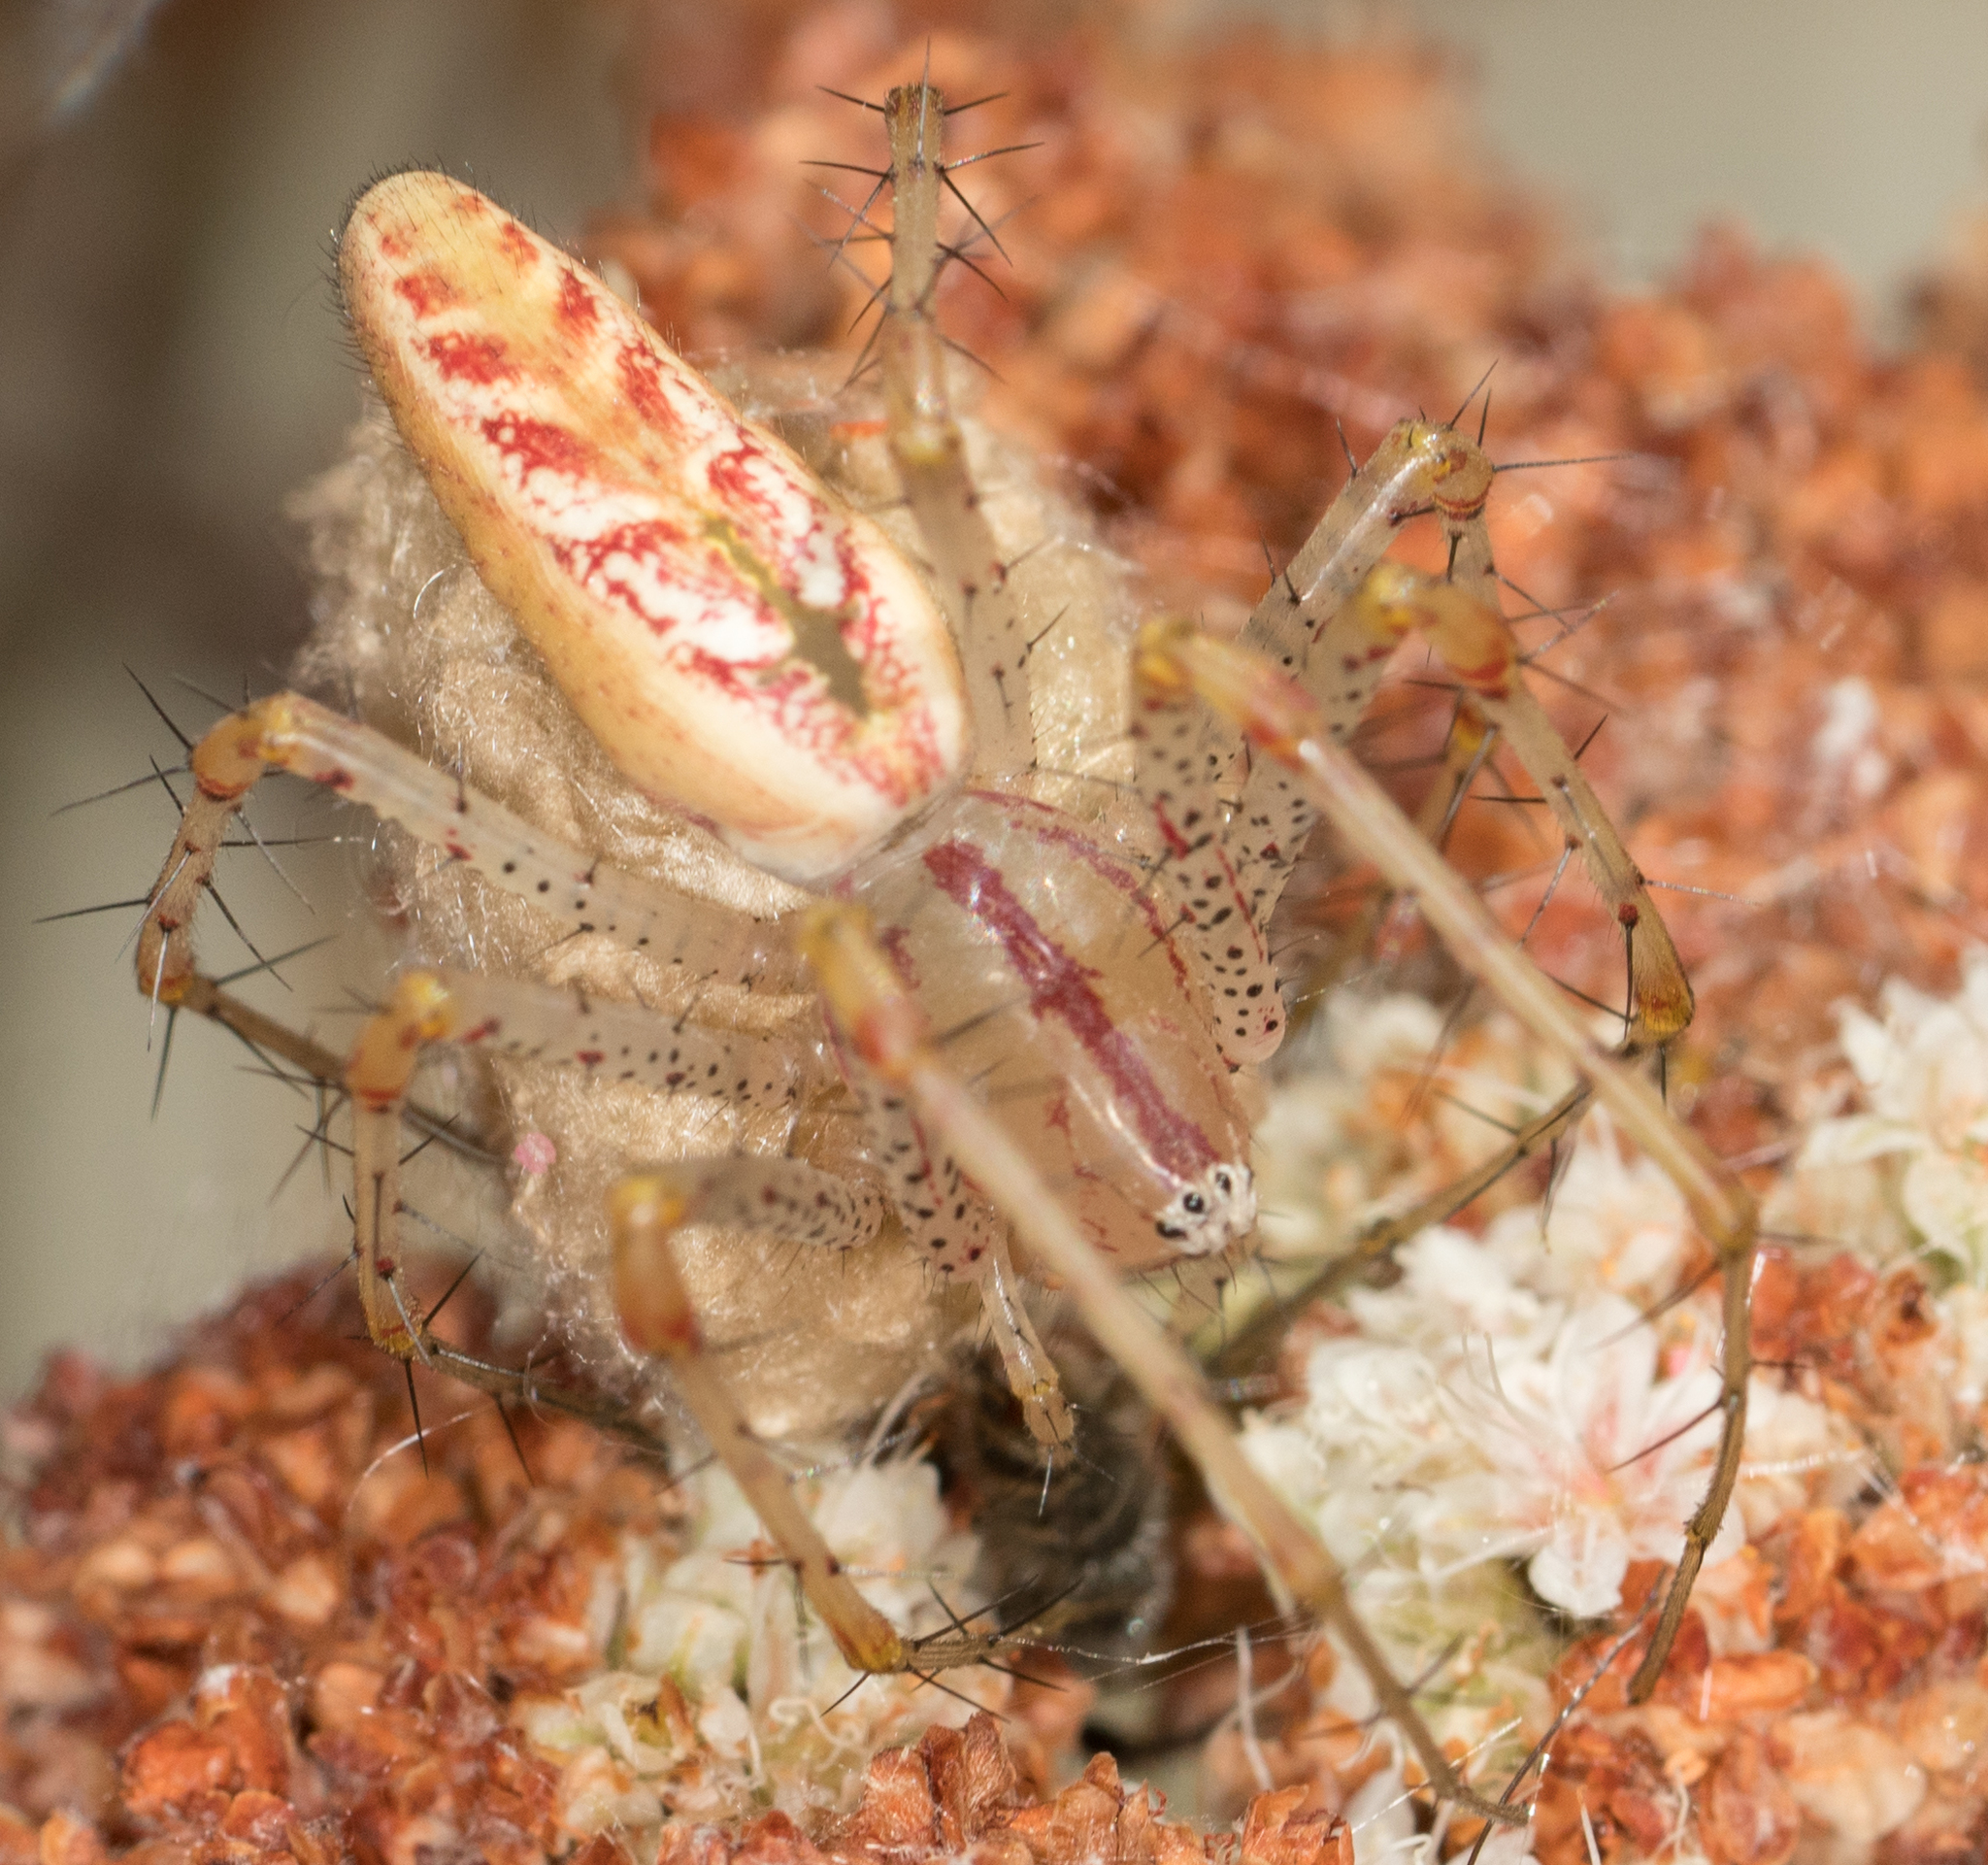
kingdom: Animalia
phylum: Arthropoda
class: Arachnida
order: Araneae
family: Oxyopidae
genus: Peucetia
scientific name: Peucetia viridans
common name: Lynx spiders
